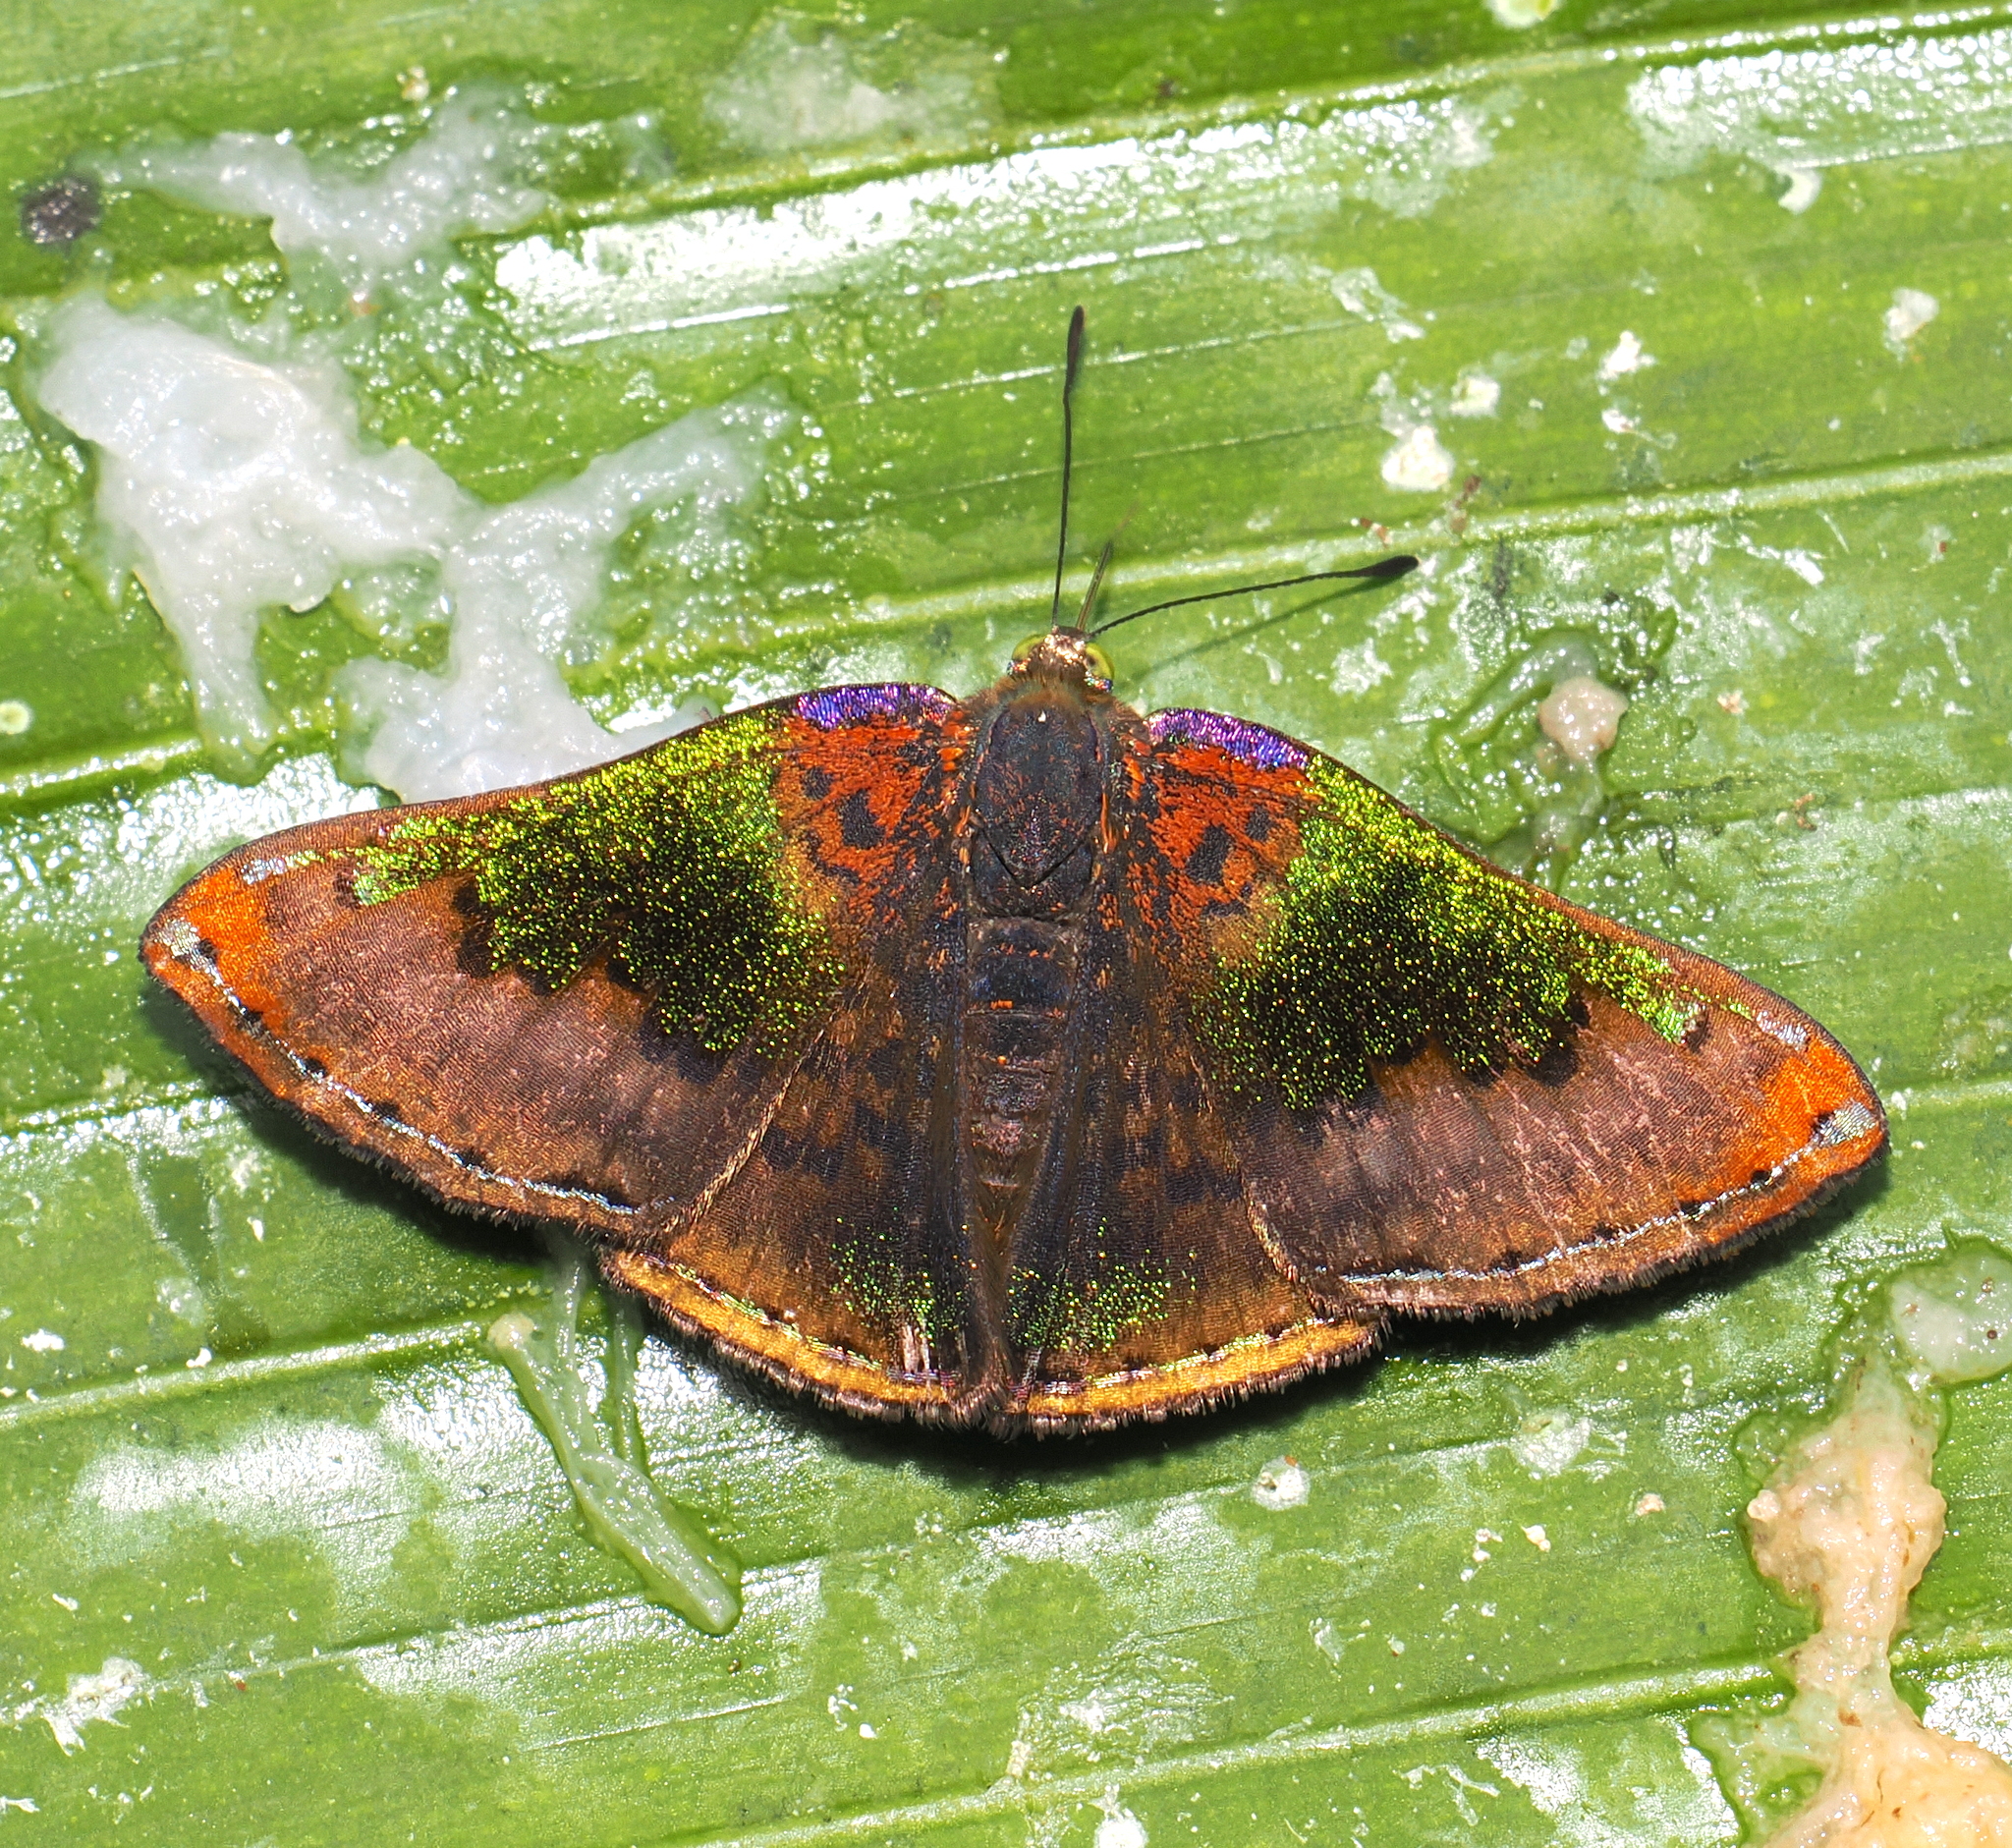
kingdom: Animalia
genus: Caria
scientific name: Caria rhacotis
